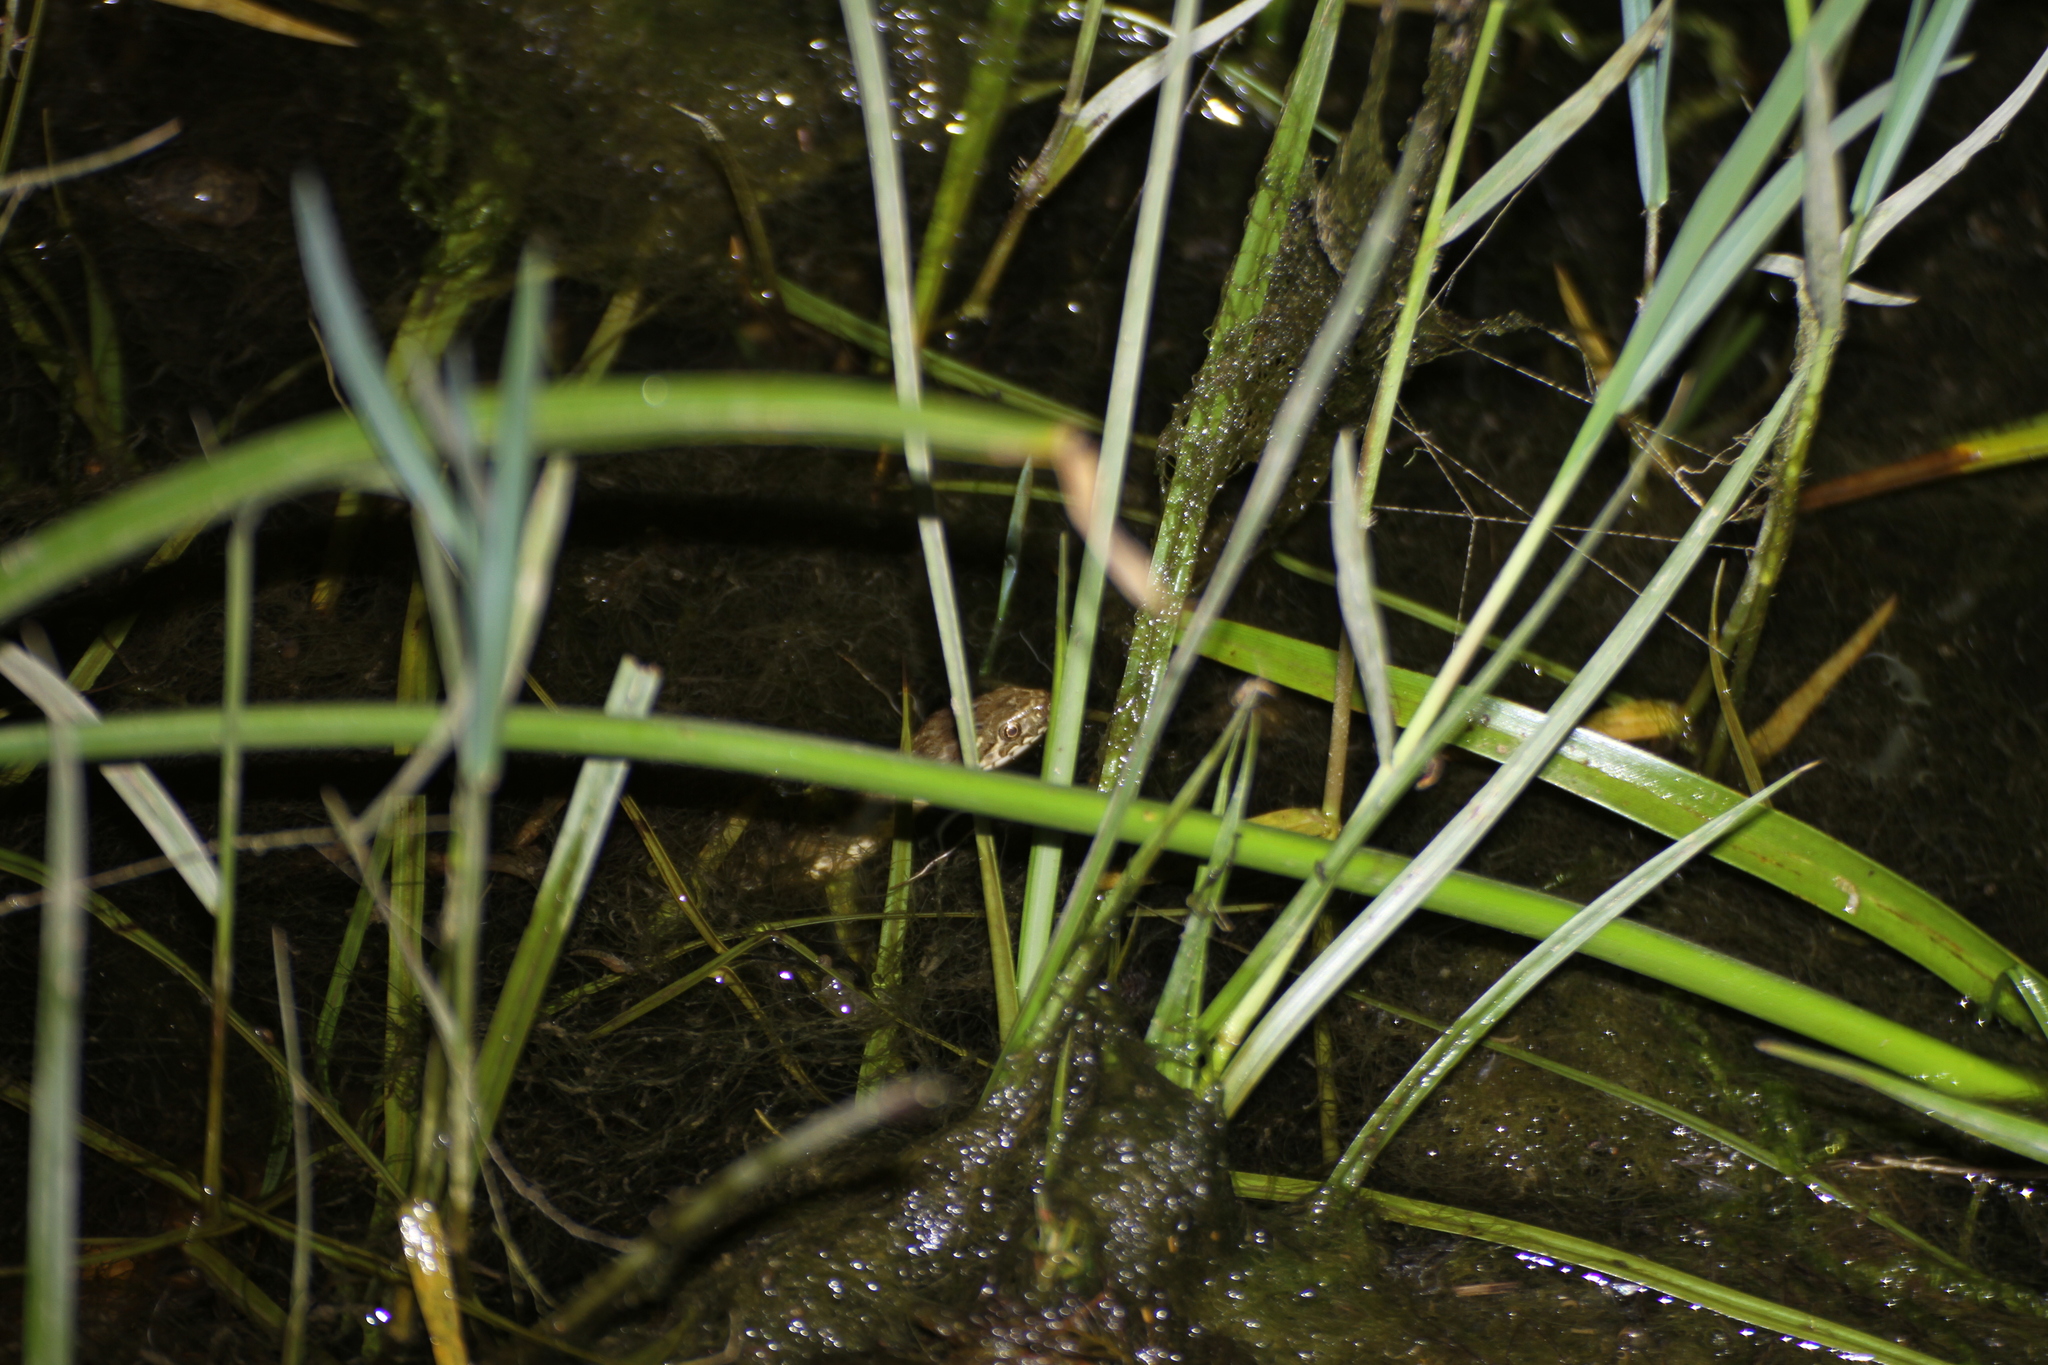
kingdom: Animalia
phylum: Chordata
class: Squamata
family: Colubridae
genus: Natrix
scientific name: Natrix maura
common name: Viperine water snake
